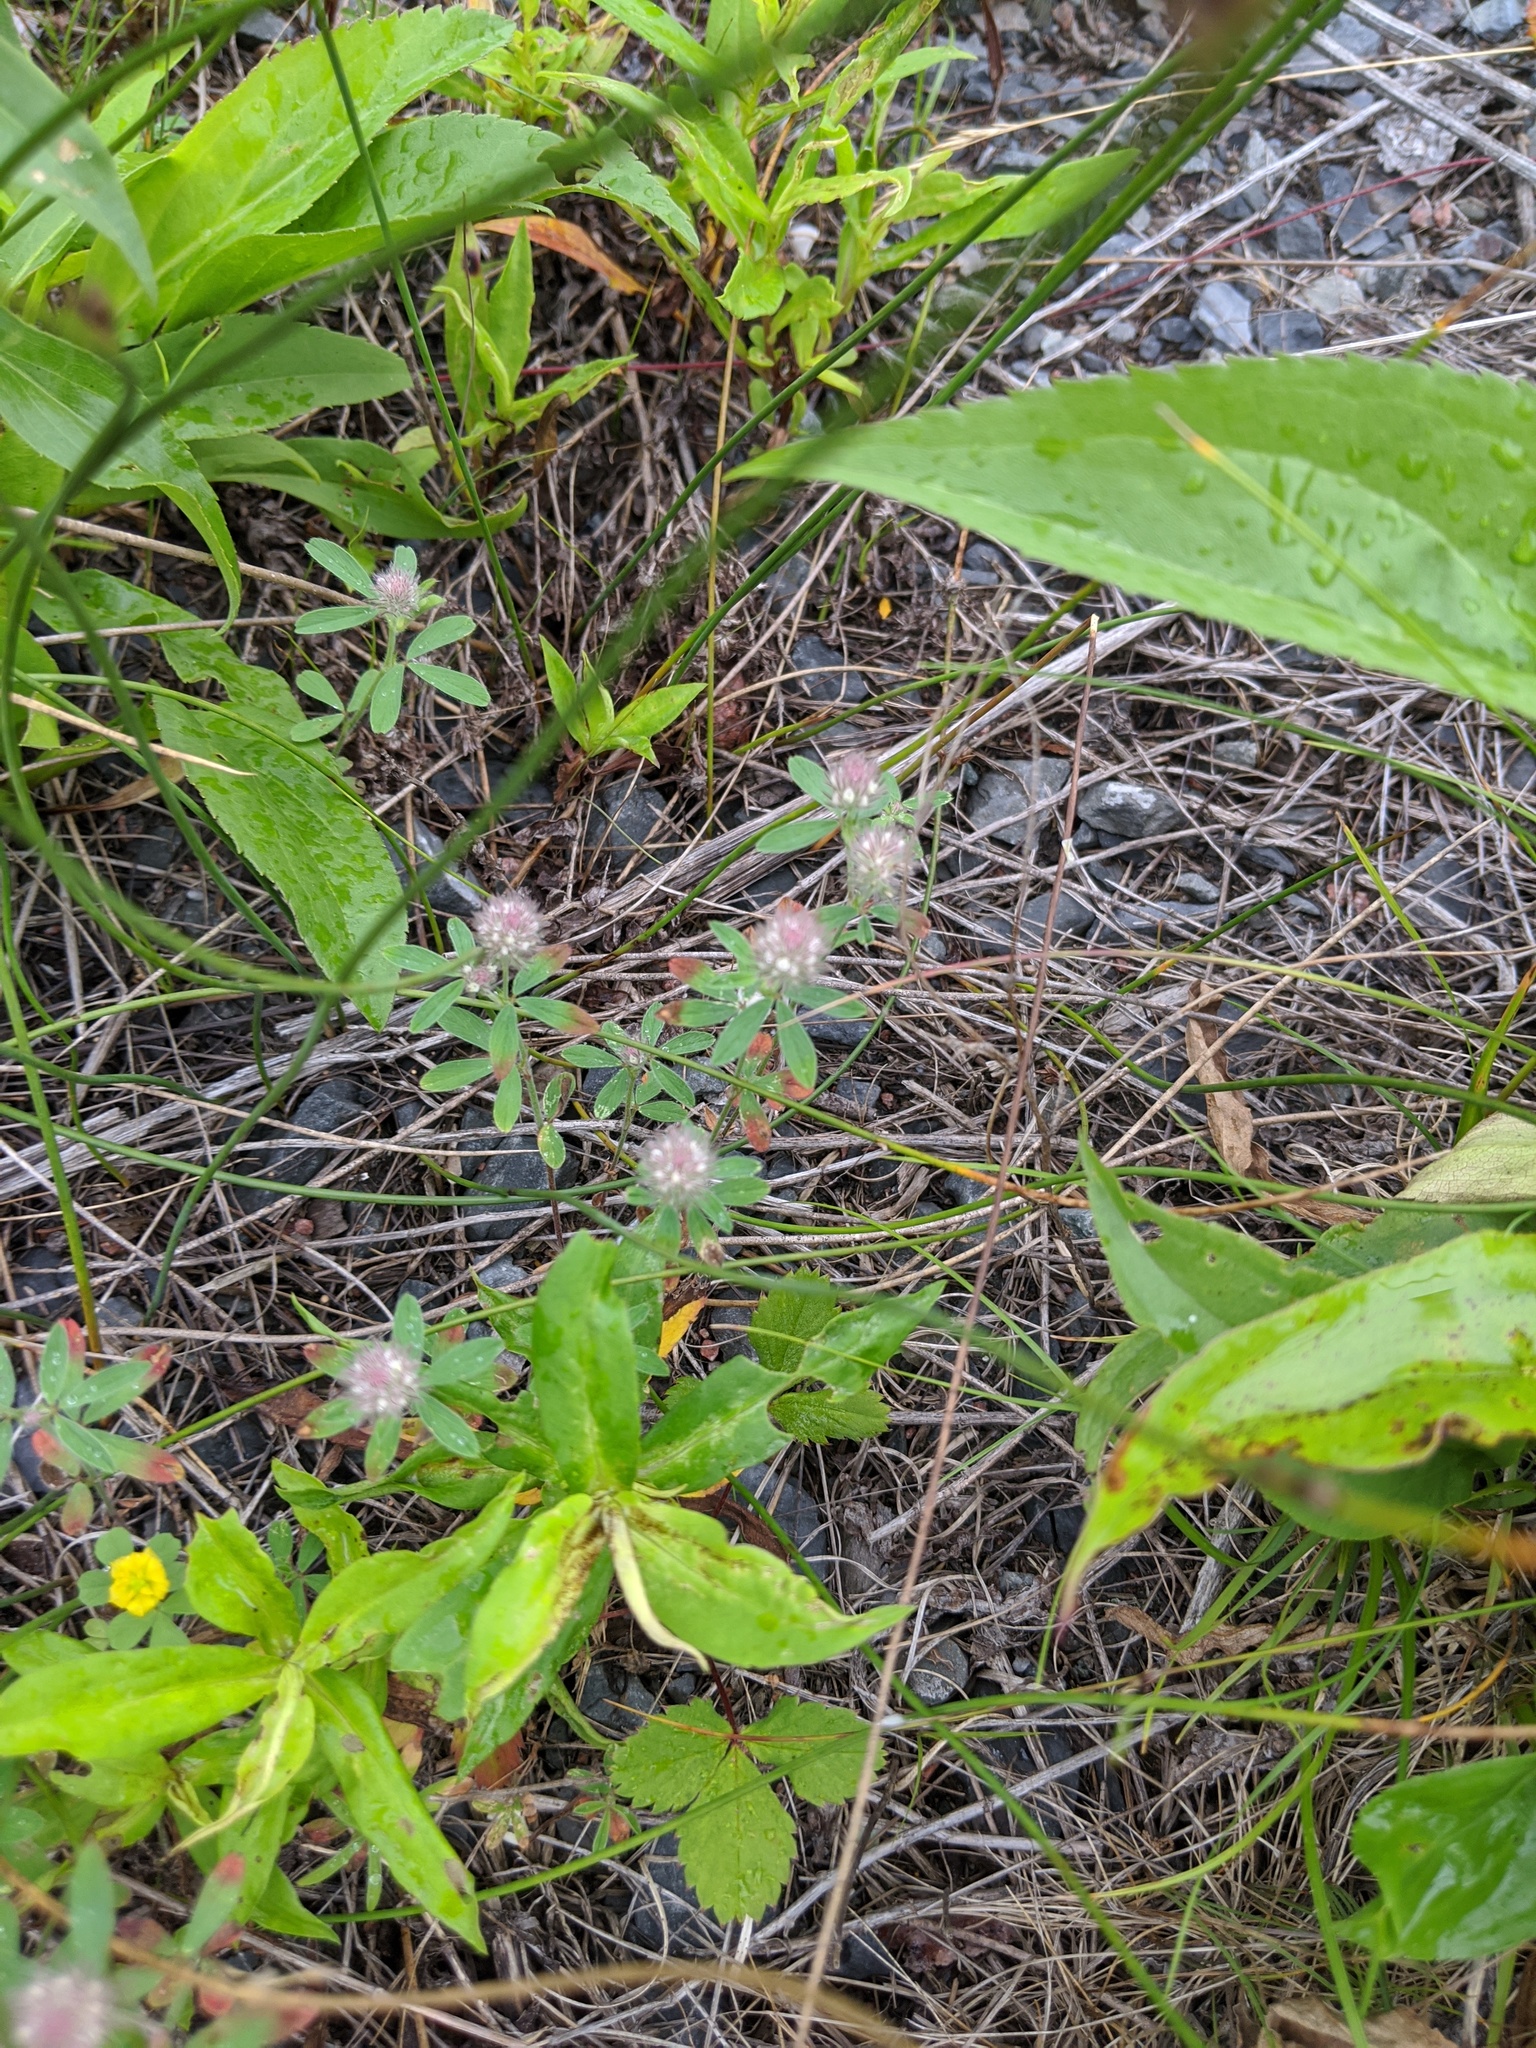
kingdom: Plantae
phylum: Tracheophyta
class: Magnoliopsida
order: Fabales
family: Fabaceae
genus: Trifolium
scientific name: Trifolium arvense
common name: Hare's-foot clover
